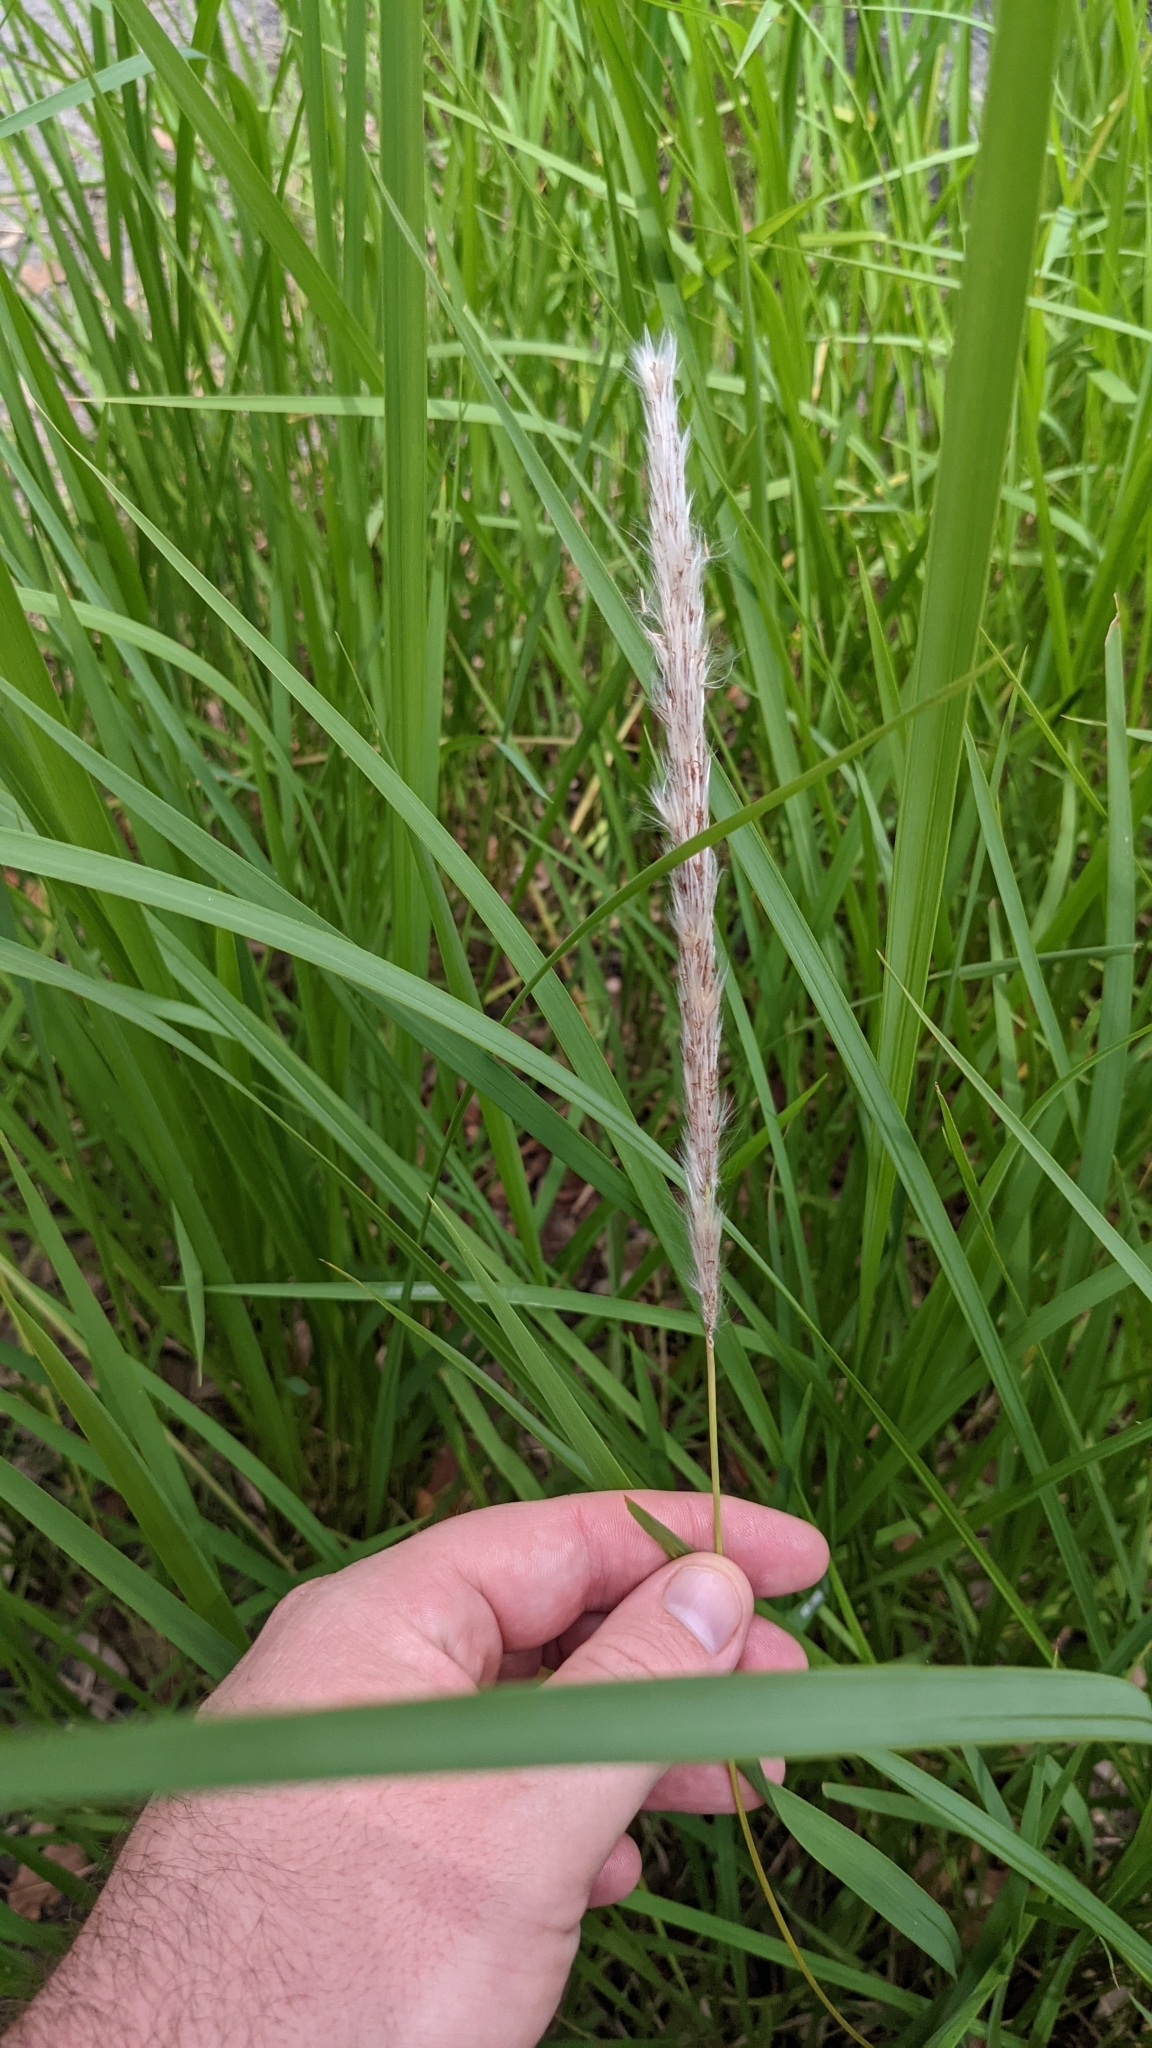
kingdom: Plantae
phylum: Tracheophyta
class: Liliopsida
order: Poales
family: Poaceae
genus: Imperata
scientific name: Imperata cylindrica
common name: Cogongrass
